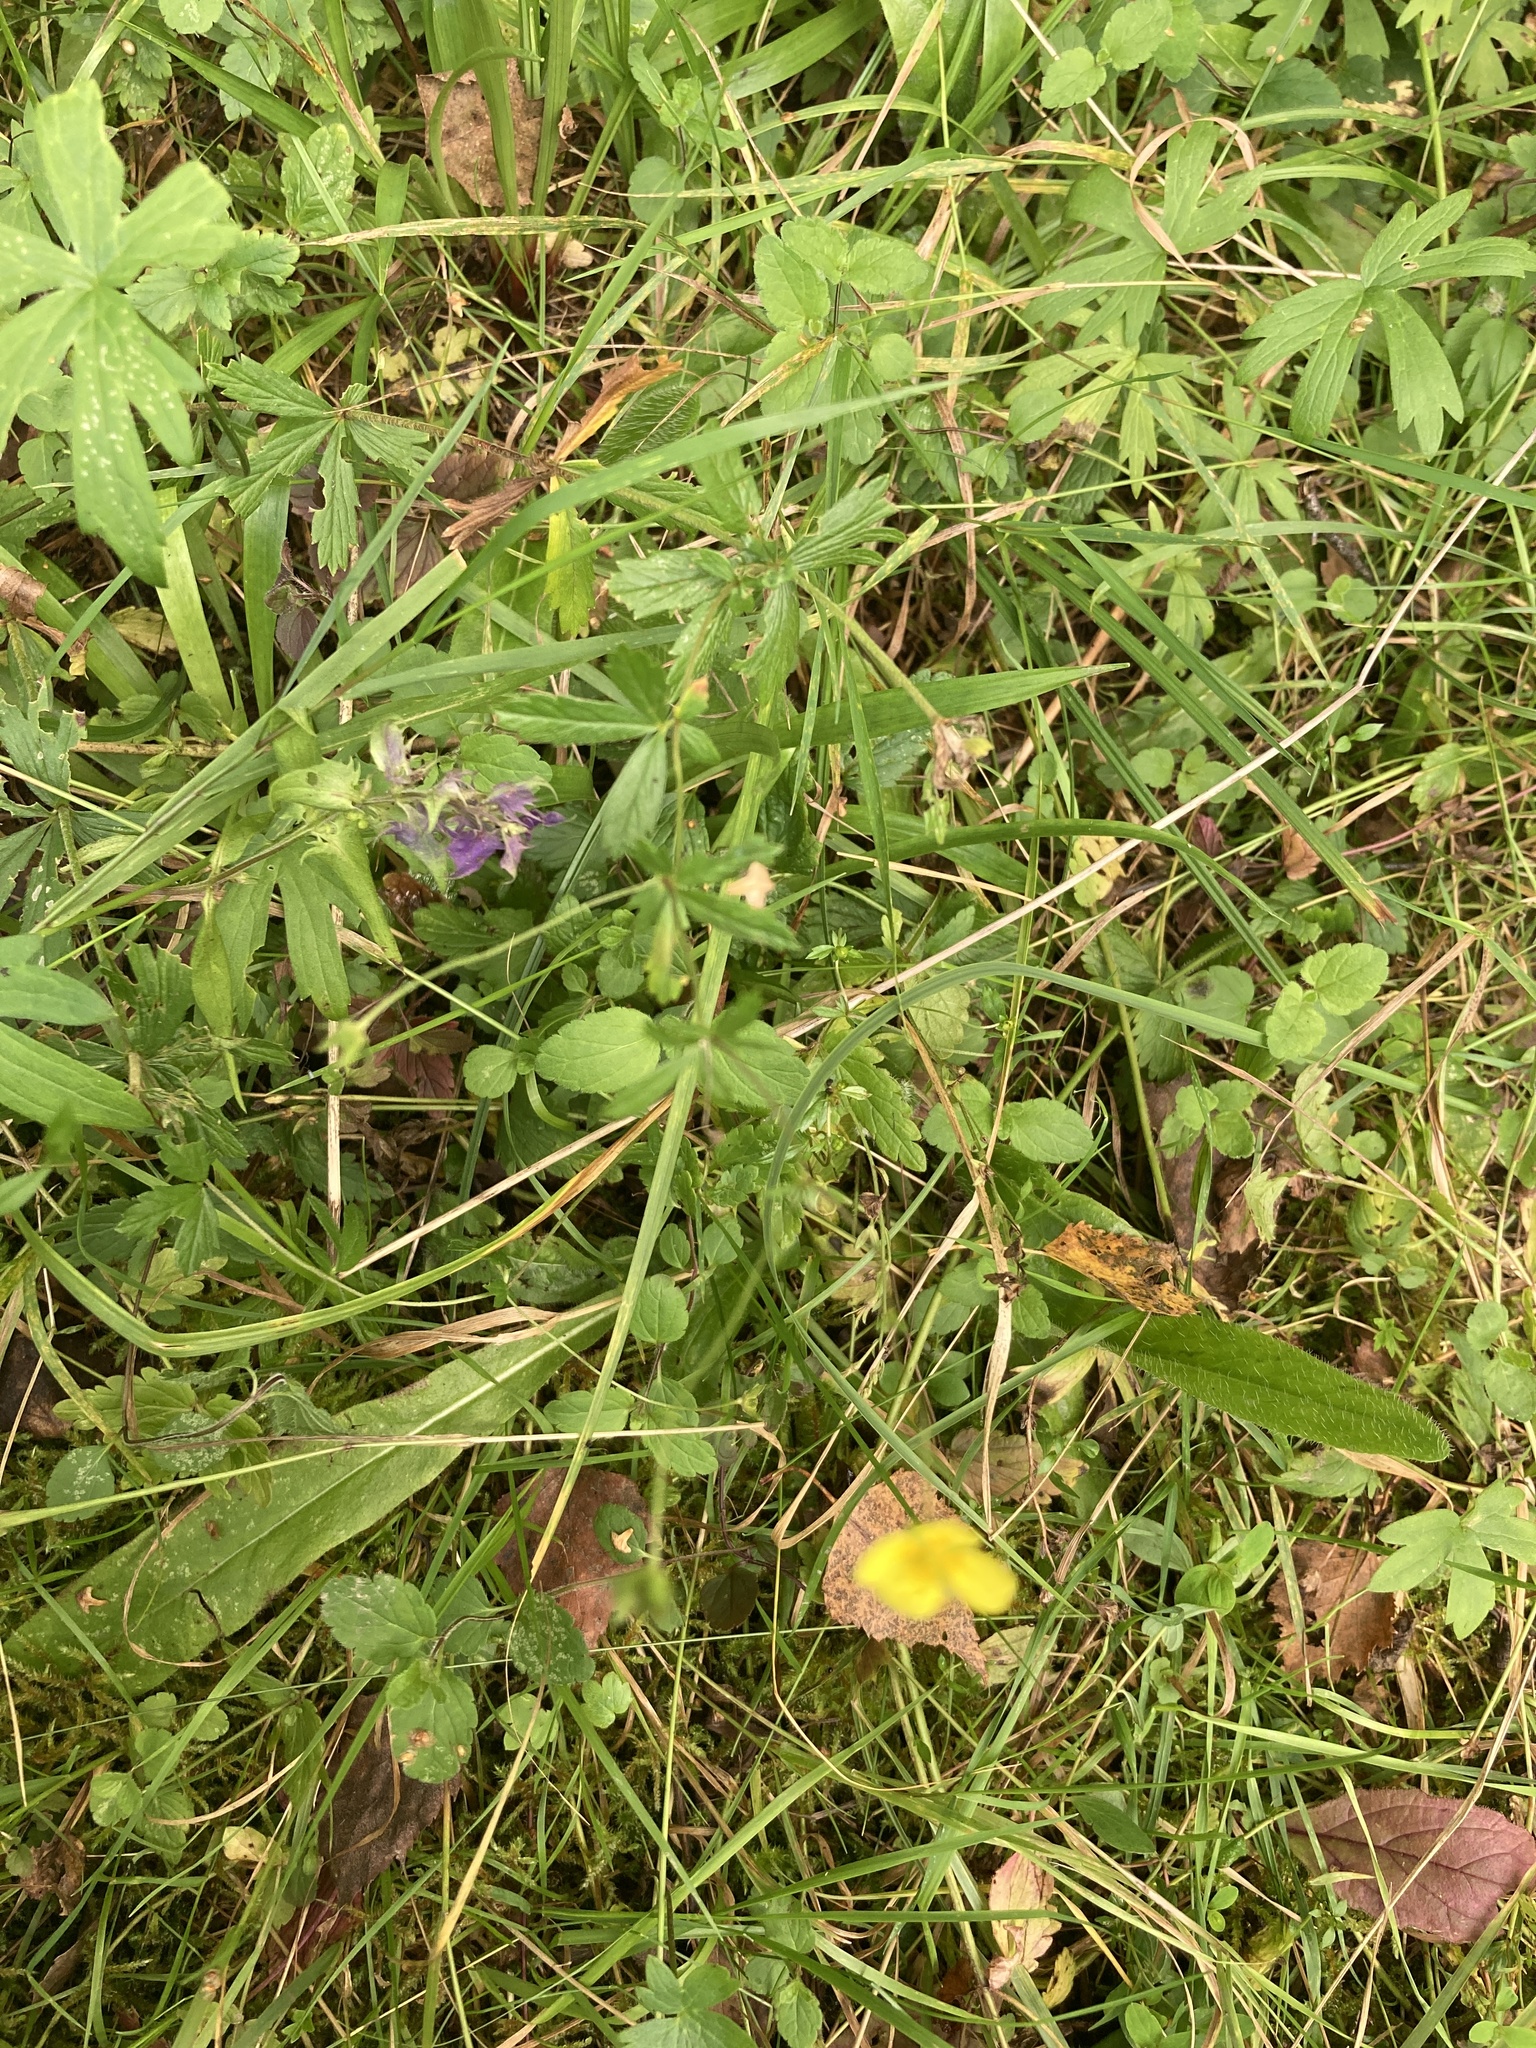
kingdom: Plantae
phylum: Tracheophyta
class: Magnoliopsida
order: Rosales
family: Rosaceae
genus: Potentilla
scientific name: Potentilla erecta
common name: Tormentil
